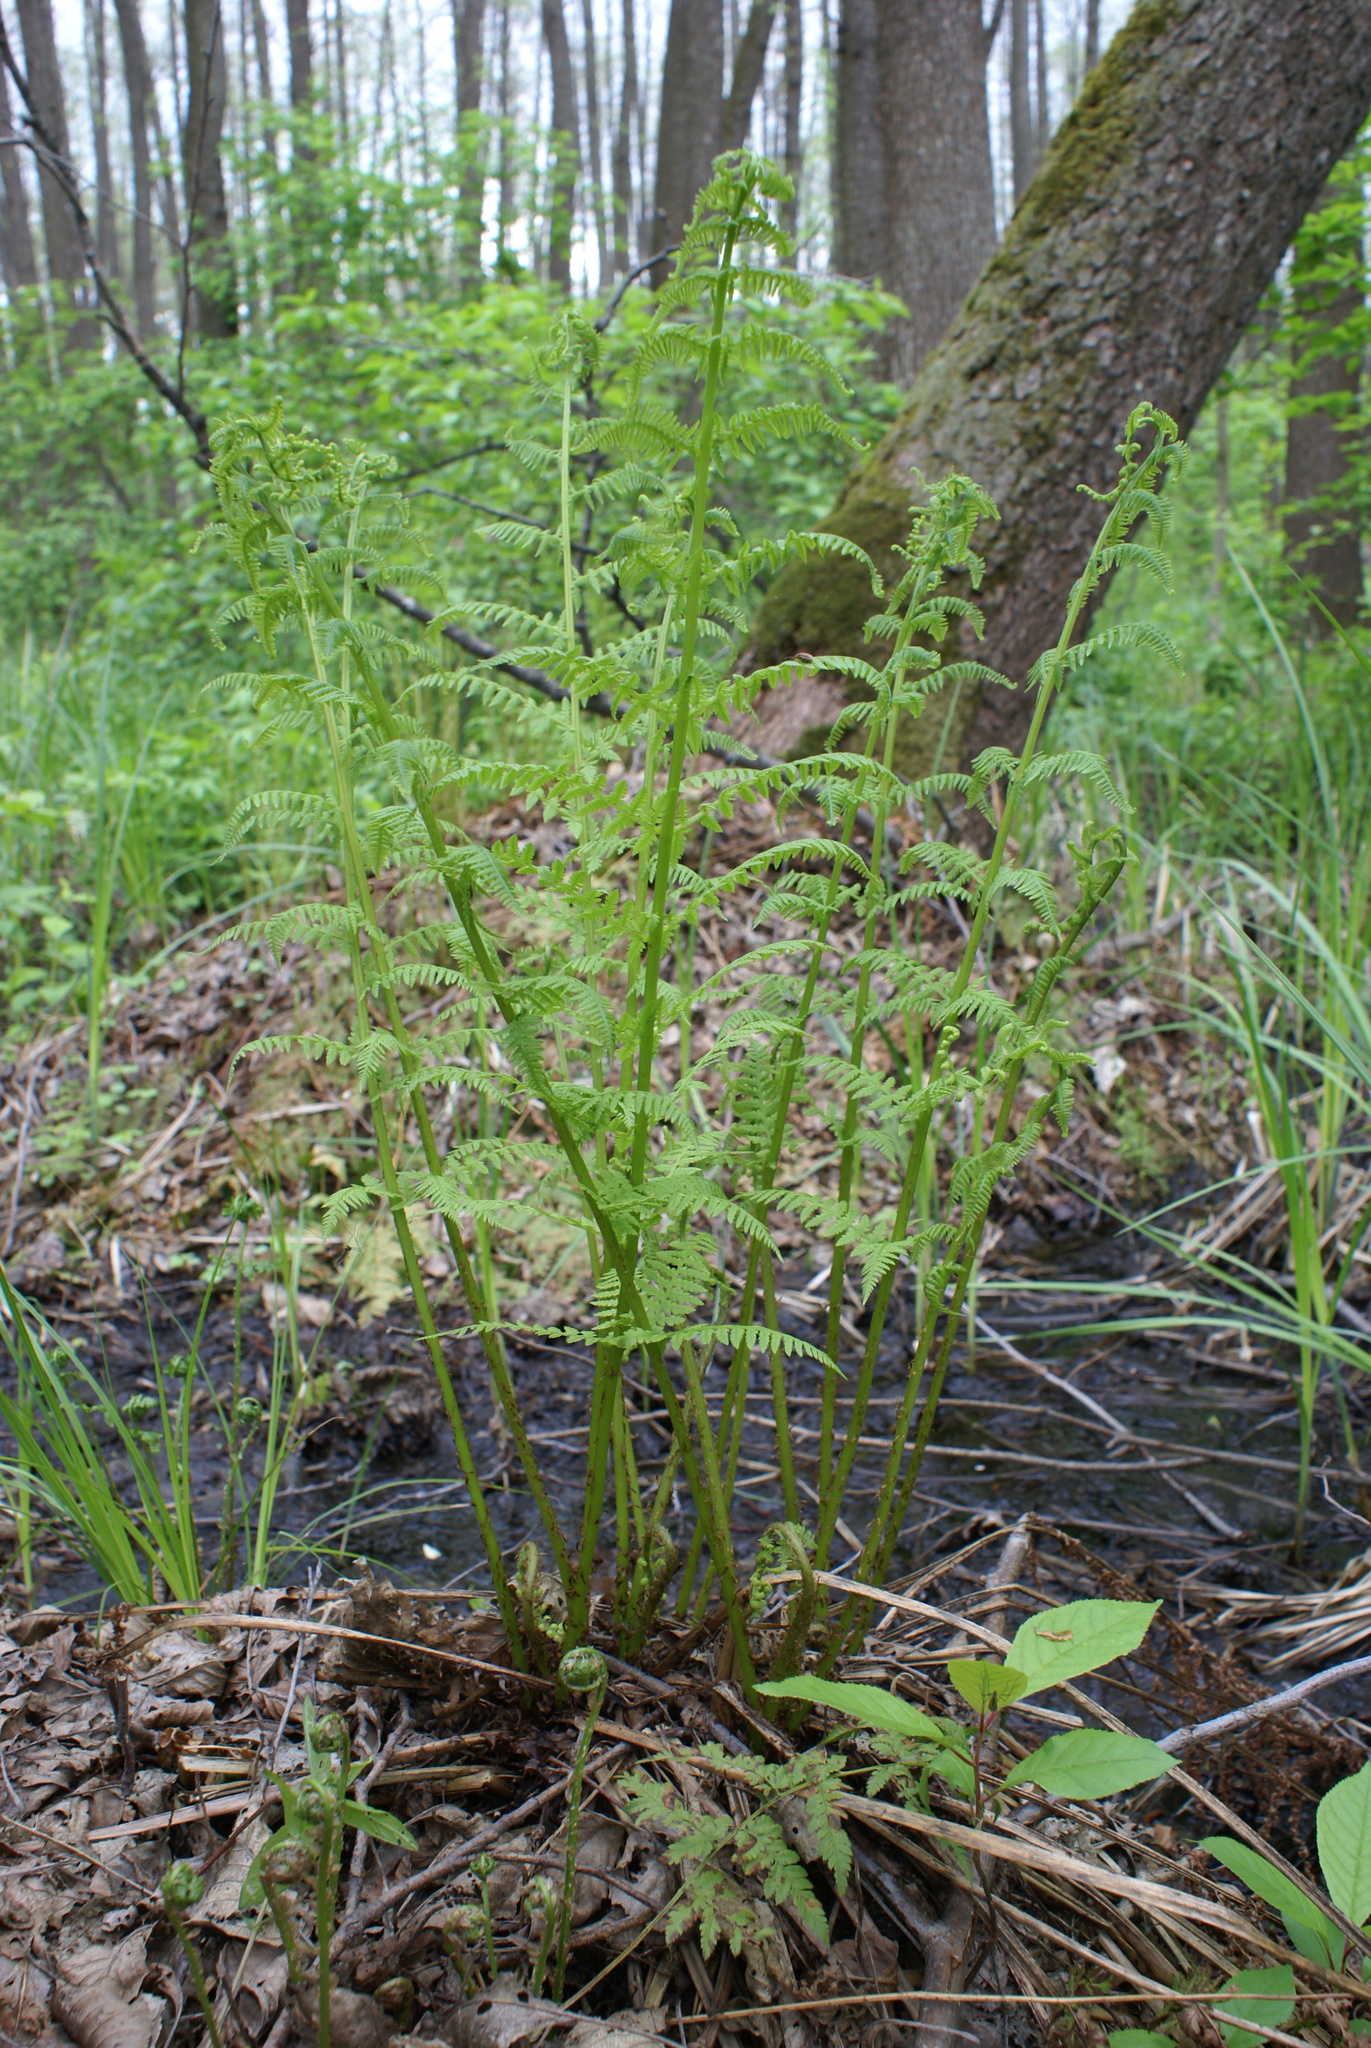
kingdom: Plantae
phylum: Tracheophyta
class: Polypodiopsida
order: Polypodiales
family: Athyriaceae
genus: Athyrium
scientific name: Athyrium filix-femina
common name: Lady fern
